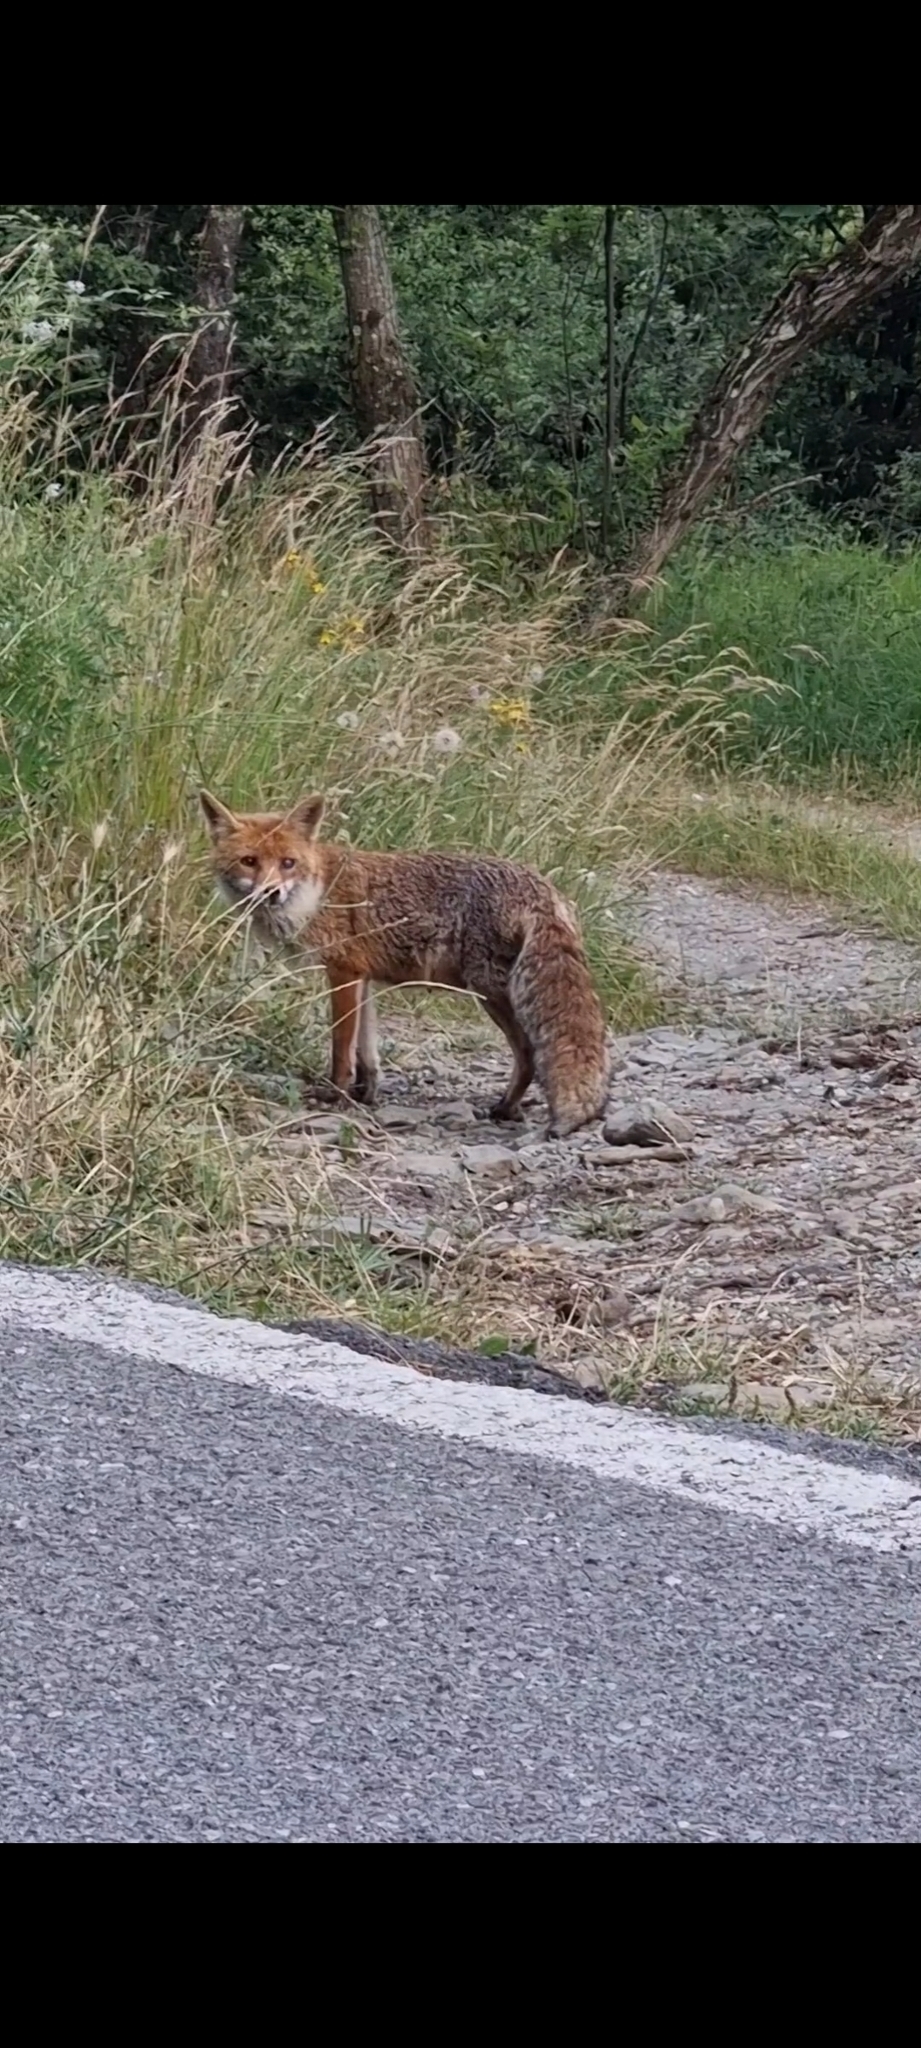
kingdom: Animalia
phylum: Chordata
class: Mammalia
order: Carnivora
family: Canidae
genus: Vulpes
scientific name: Vulpes vulpes
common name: Red fox
